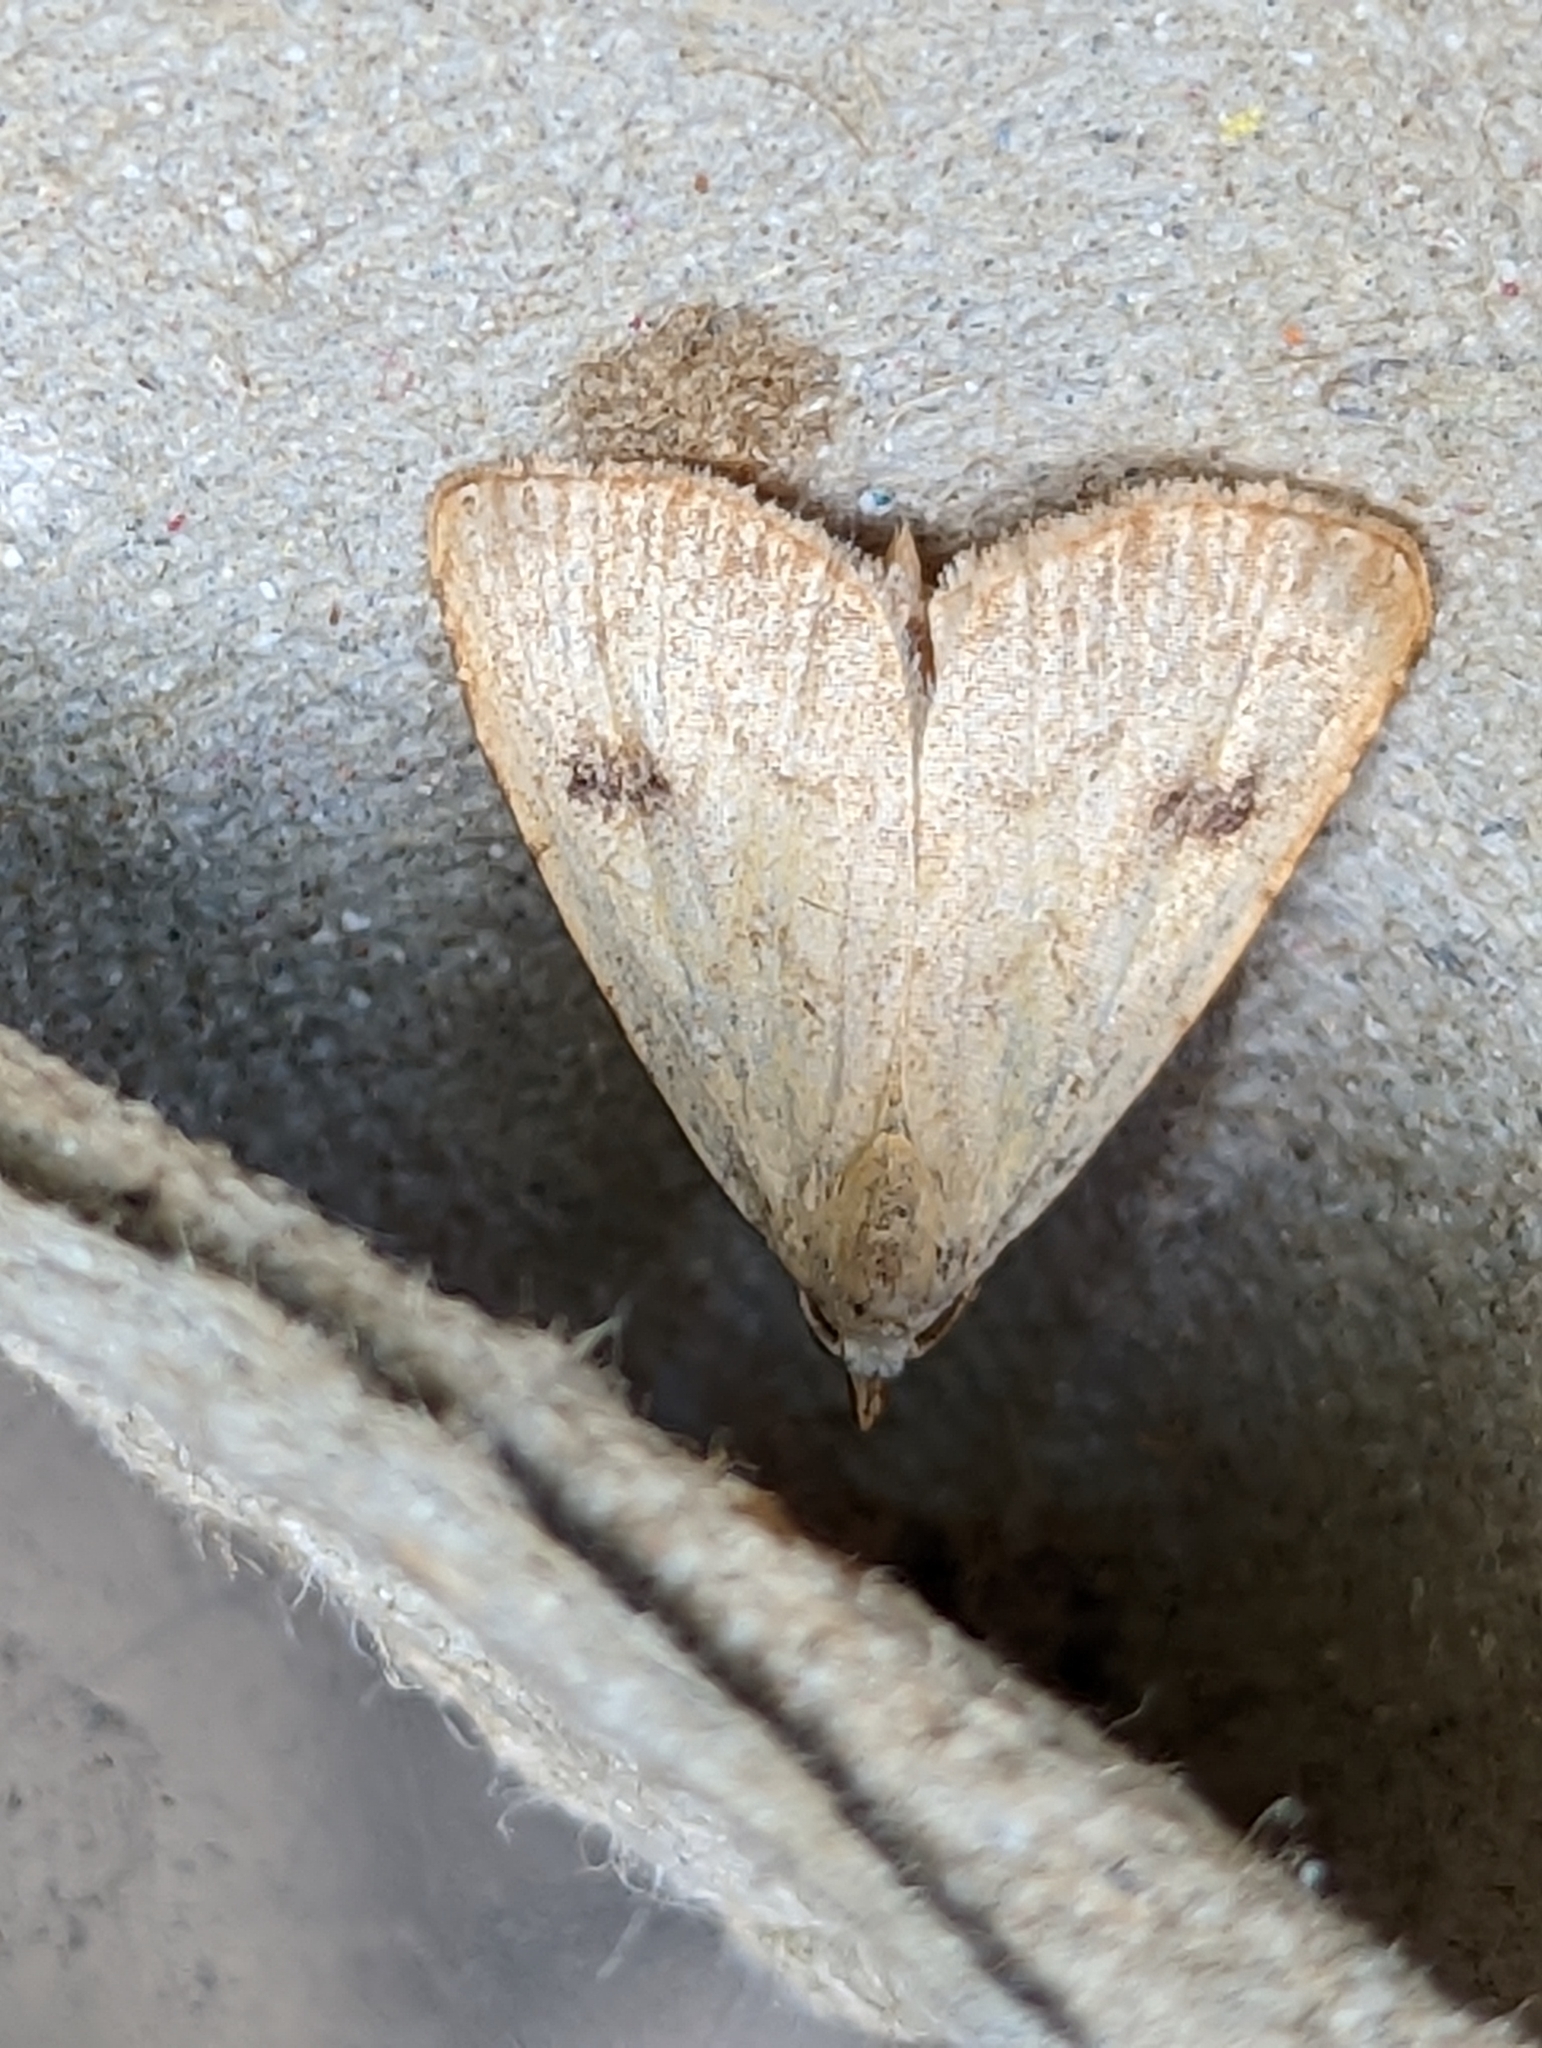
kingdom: Animalia
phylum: Arthropoda
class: Insecta
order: Lepidoptera
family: Erebidae
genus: Rivula
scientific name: Rivula sericealis
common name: Straw dot
